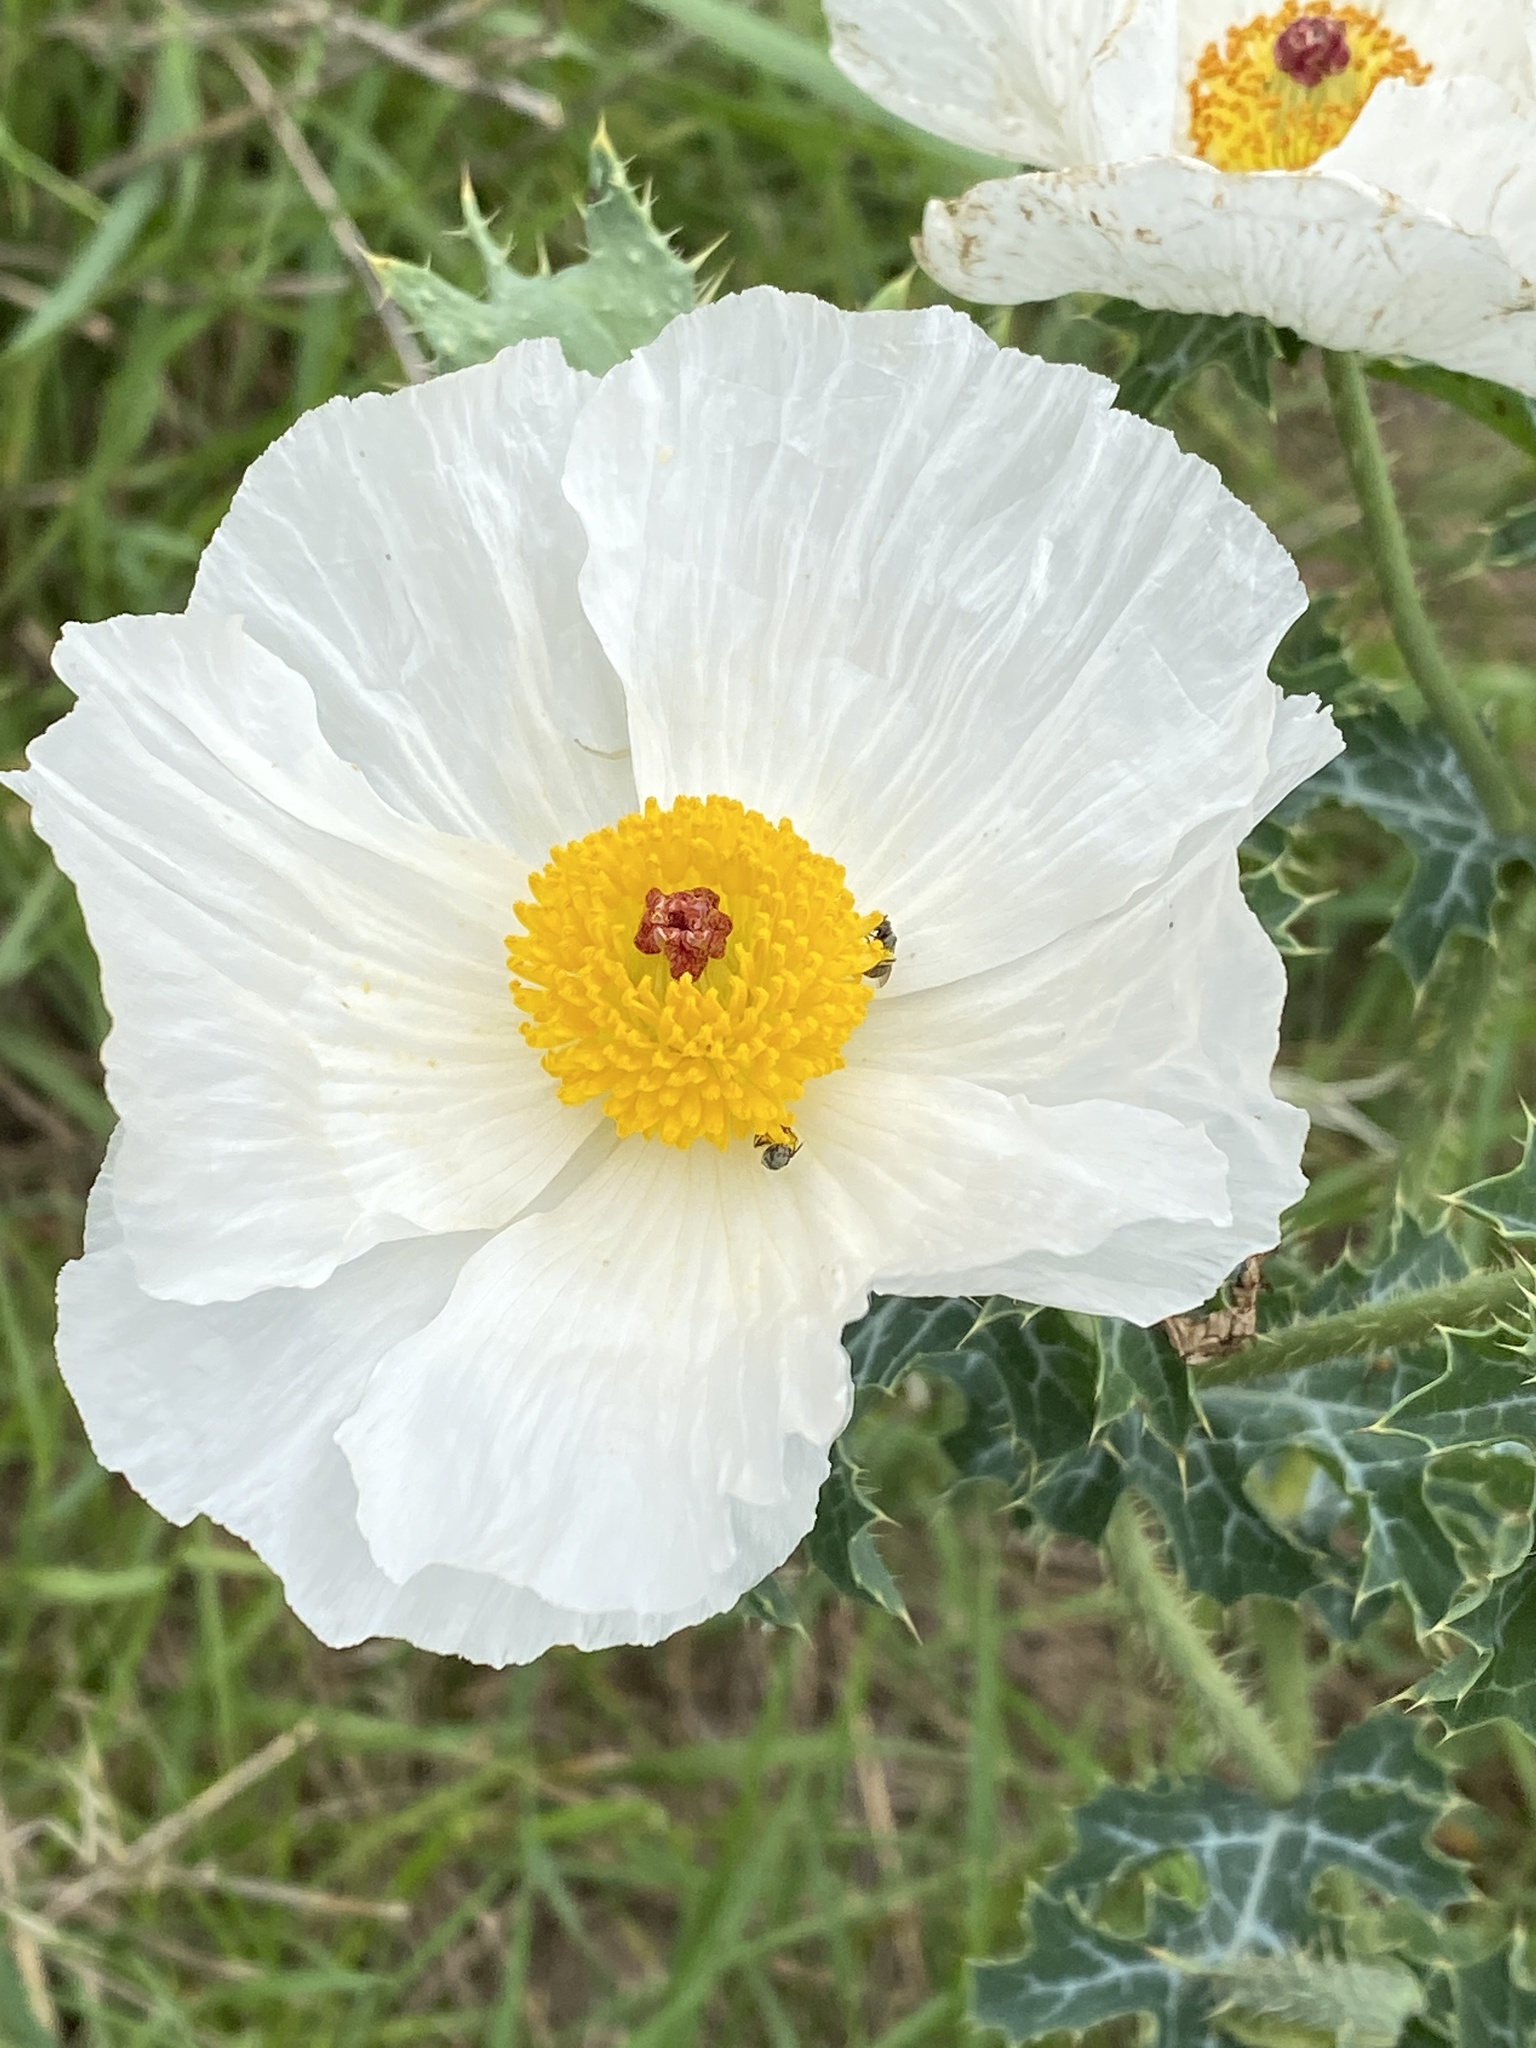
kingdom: Plantae
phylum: Tracheophyta
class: Magnoliopsida
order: Ranunculales
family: Papaveraceae
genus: Argemone
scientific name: Argemone albiflora
